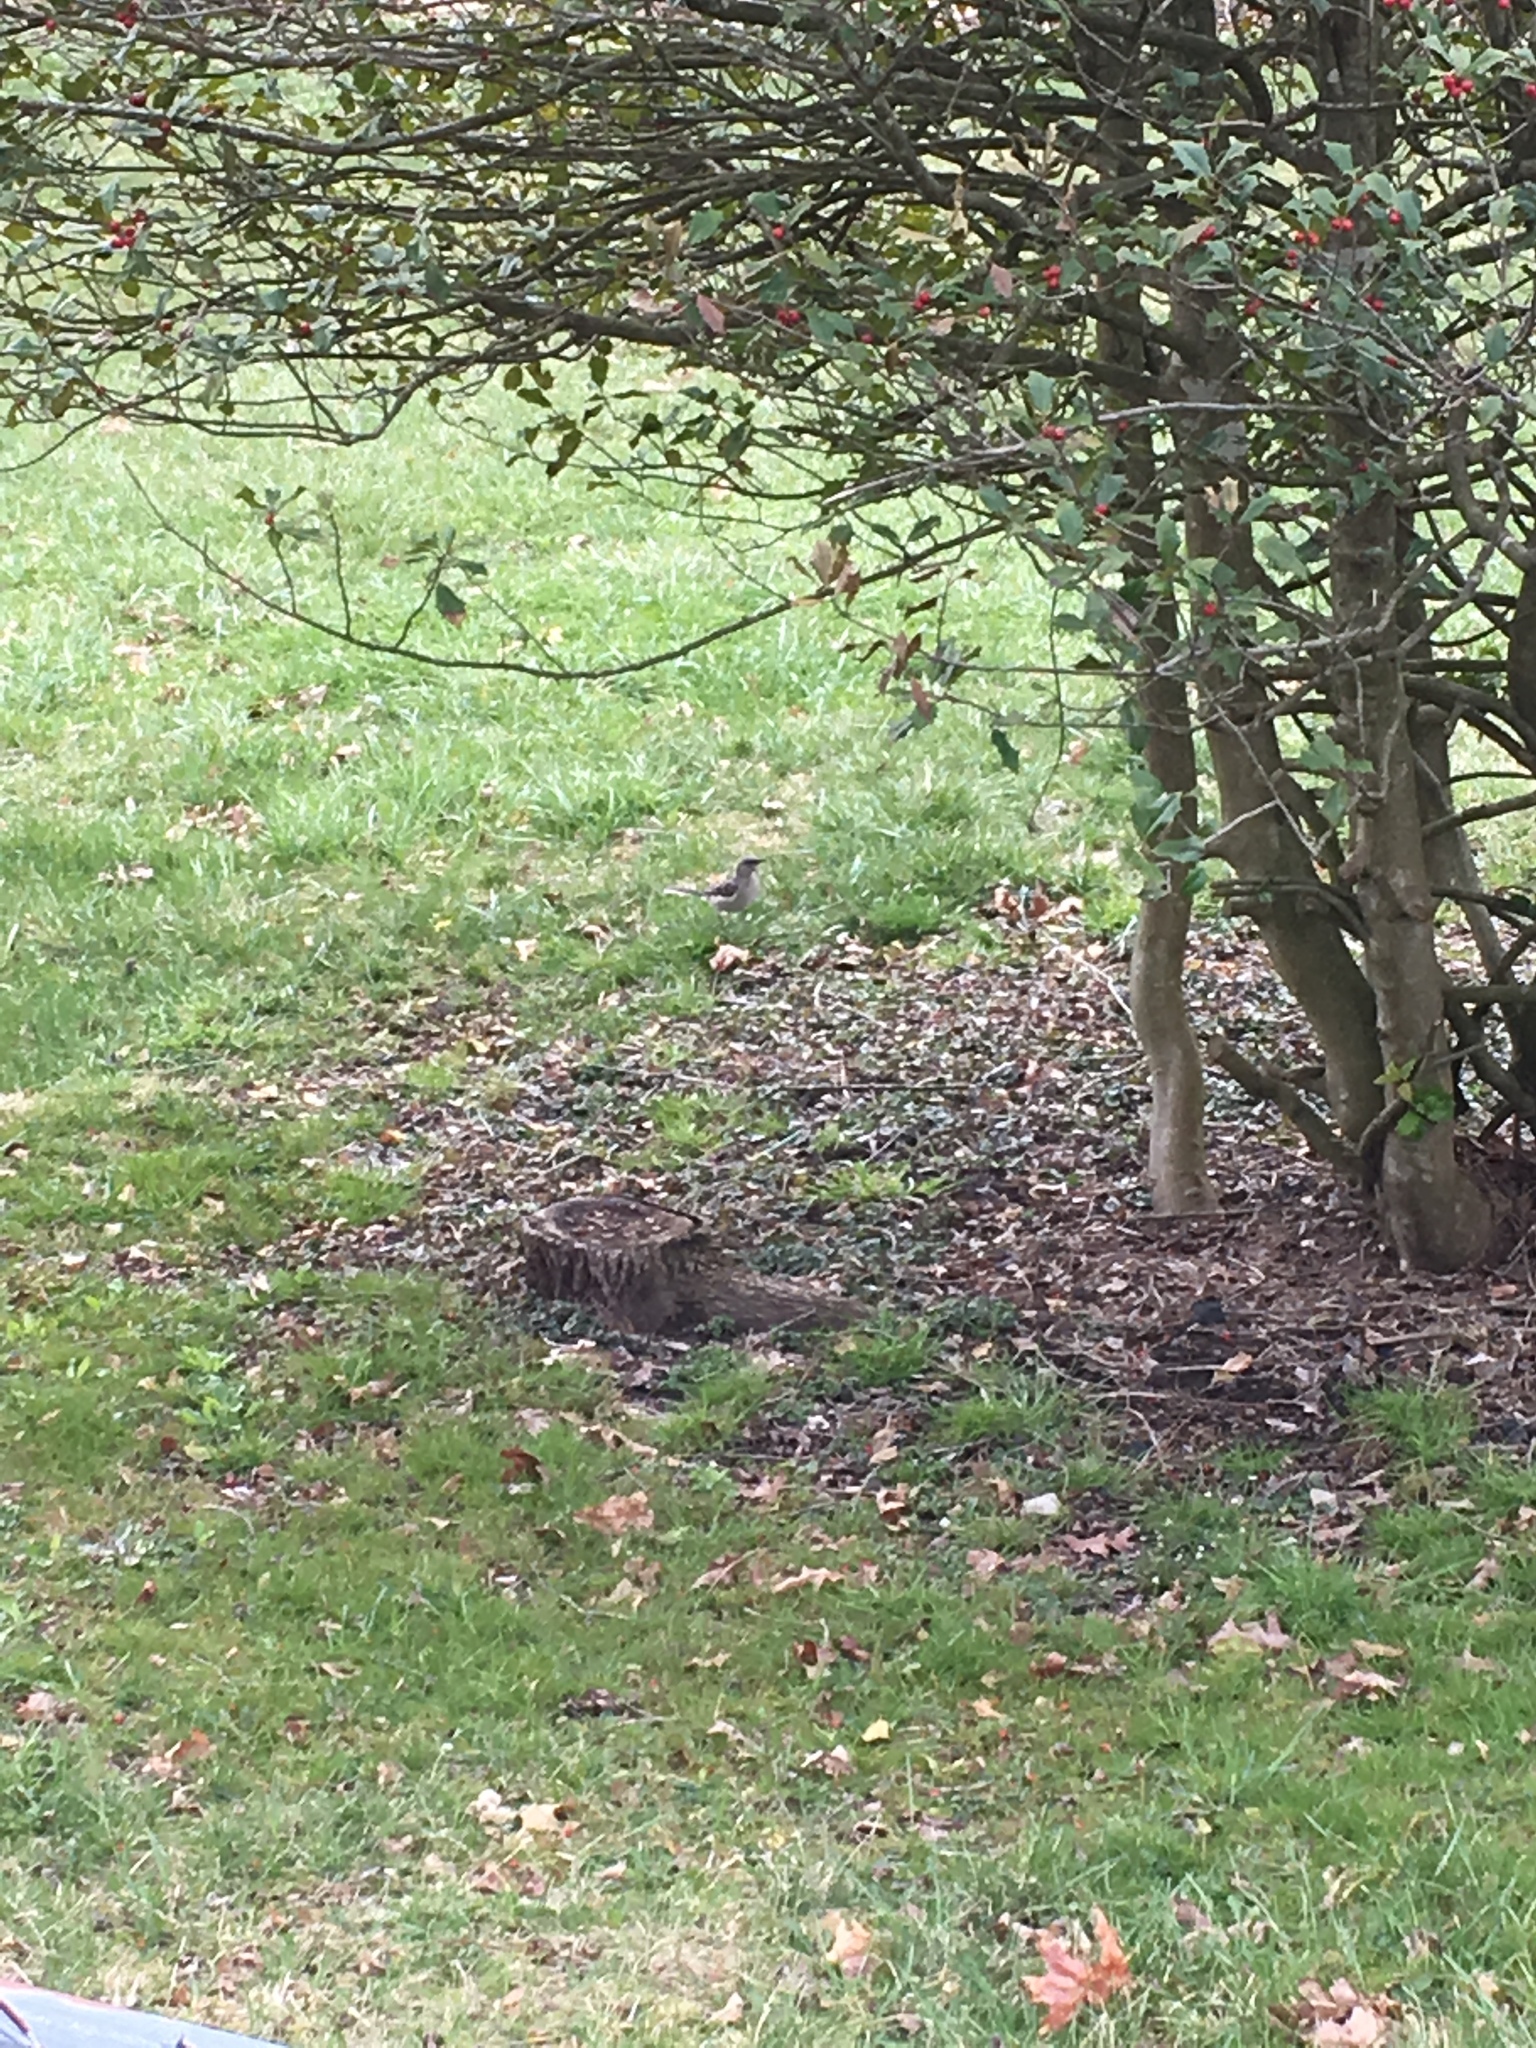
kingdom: Animalia
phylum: Chordata
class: Aves
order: Passeriformes
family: Mimidae
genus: Mimus
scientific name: Mimus polyglottos
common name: Northern mockingbird
